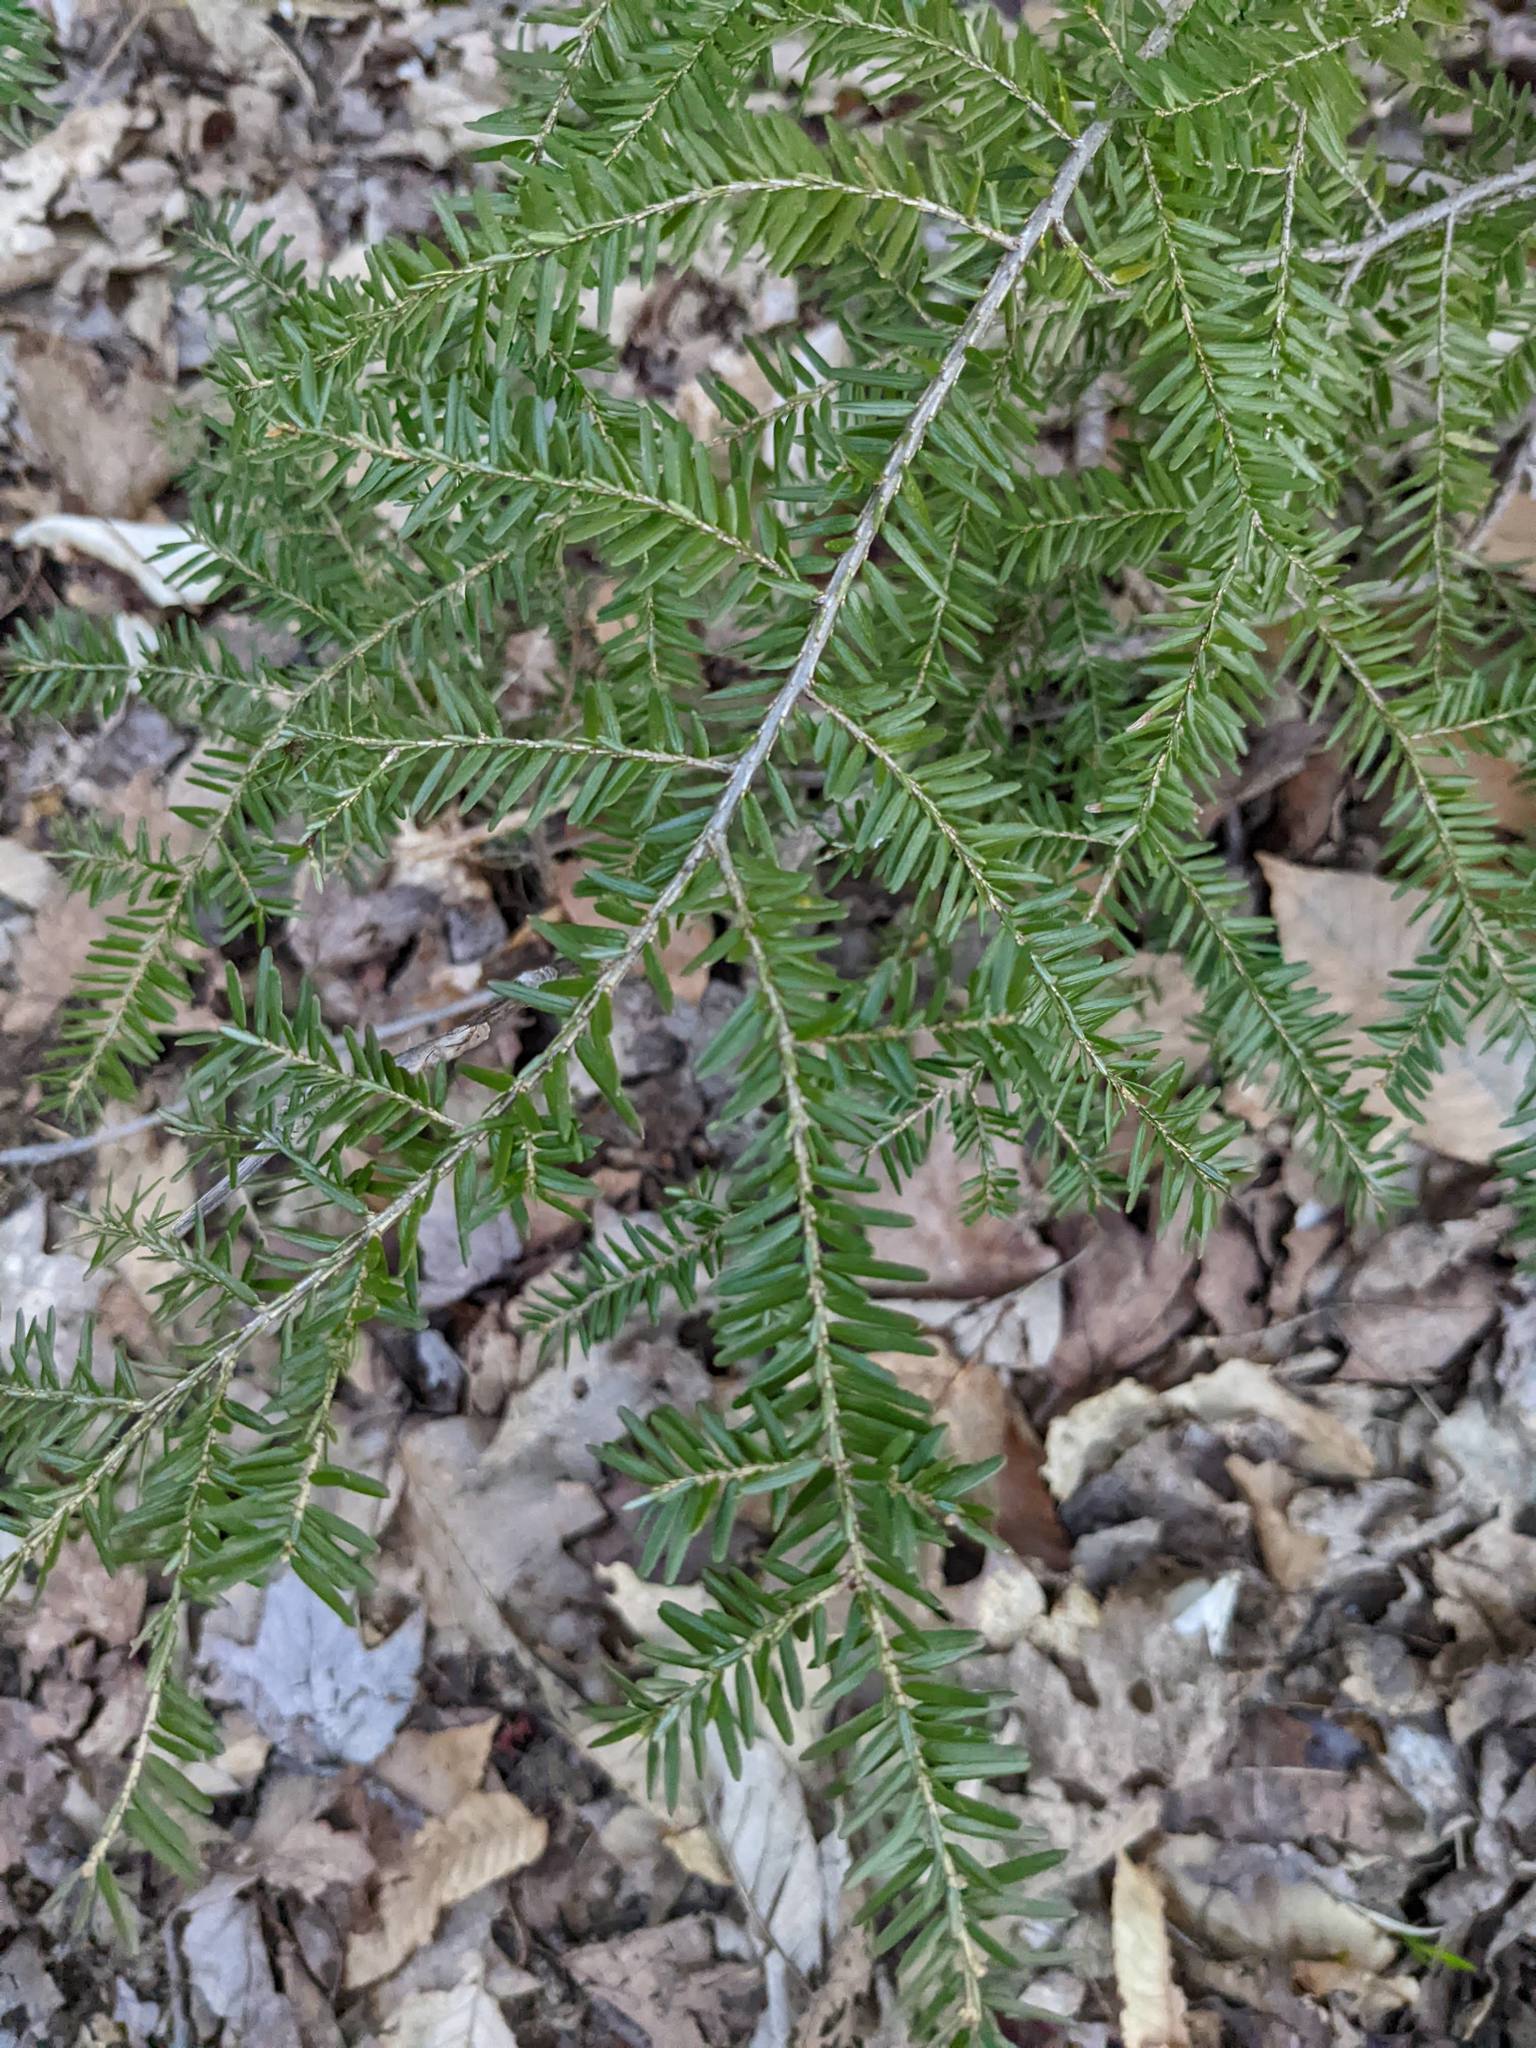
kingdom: Plantae
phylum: Tracheophyta
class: Pinopsida
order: Pinales
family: Pinaceae
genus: Tsuga
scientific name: Tsuga canadensis
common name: Eastern hemlock
